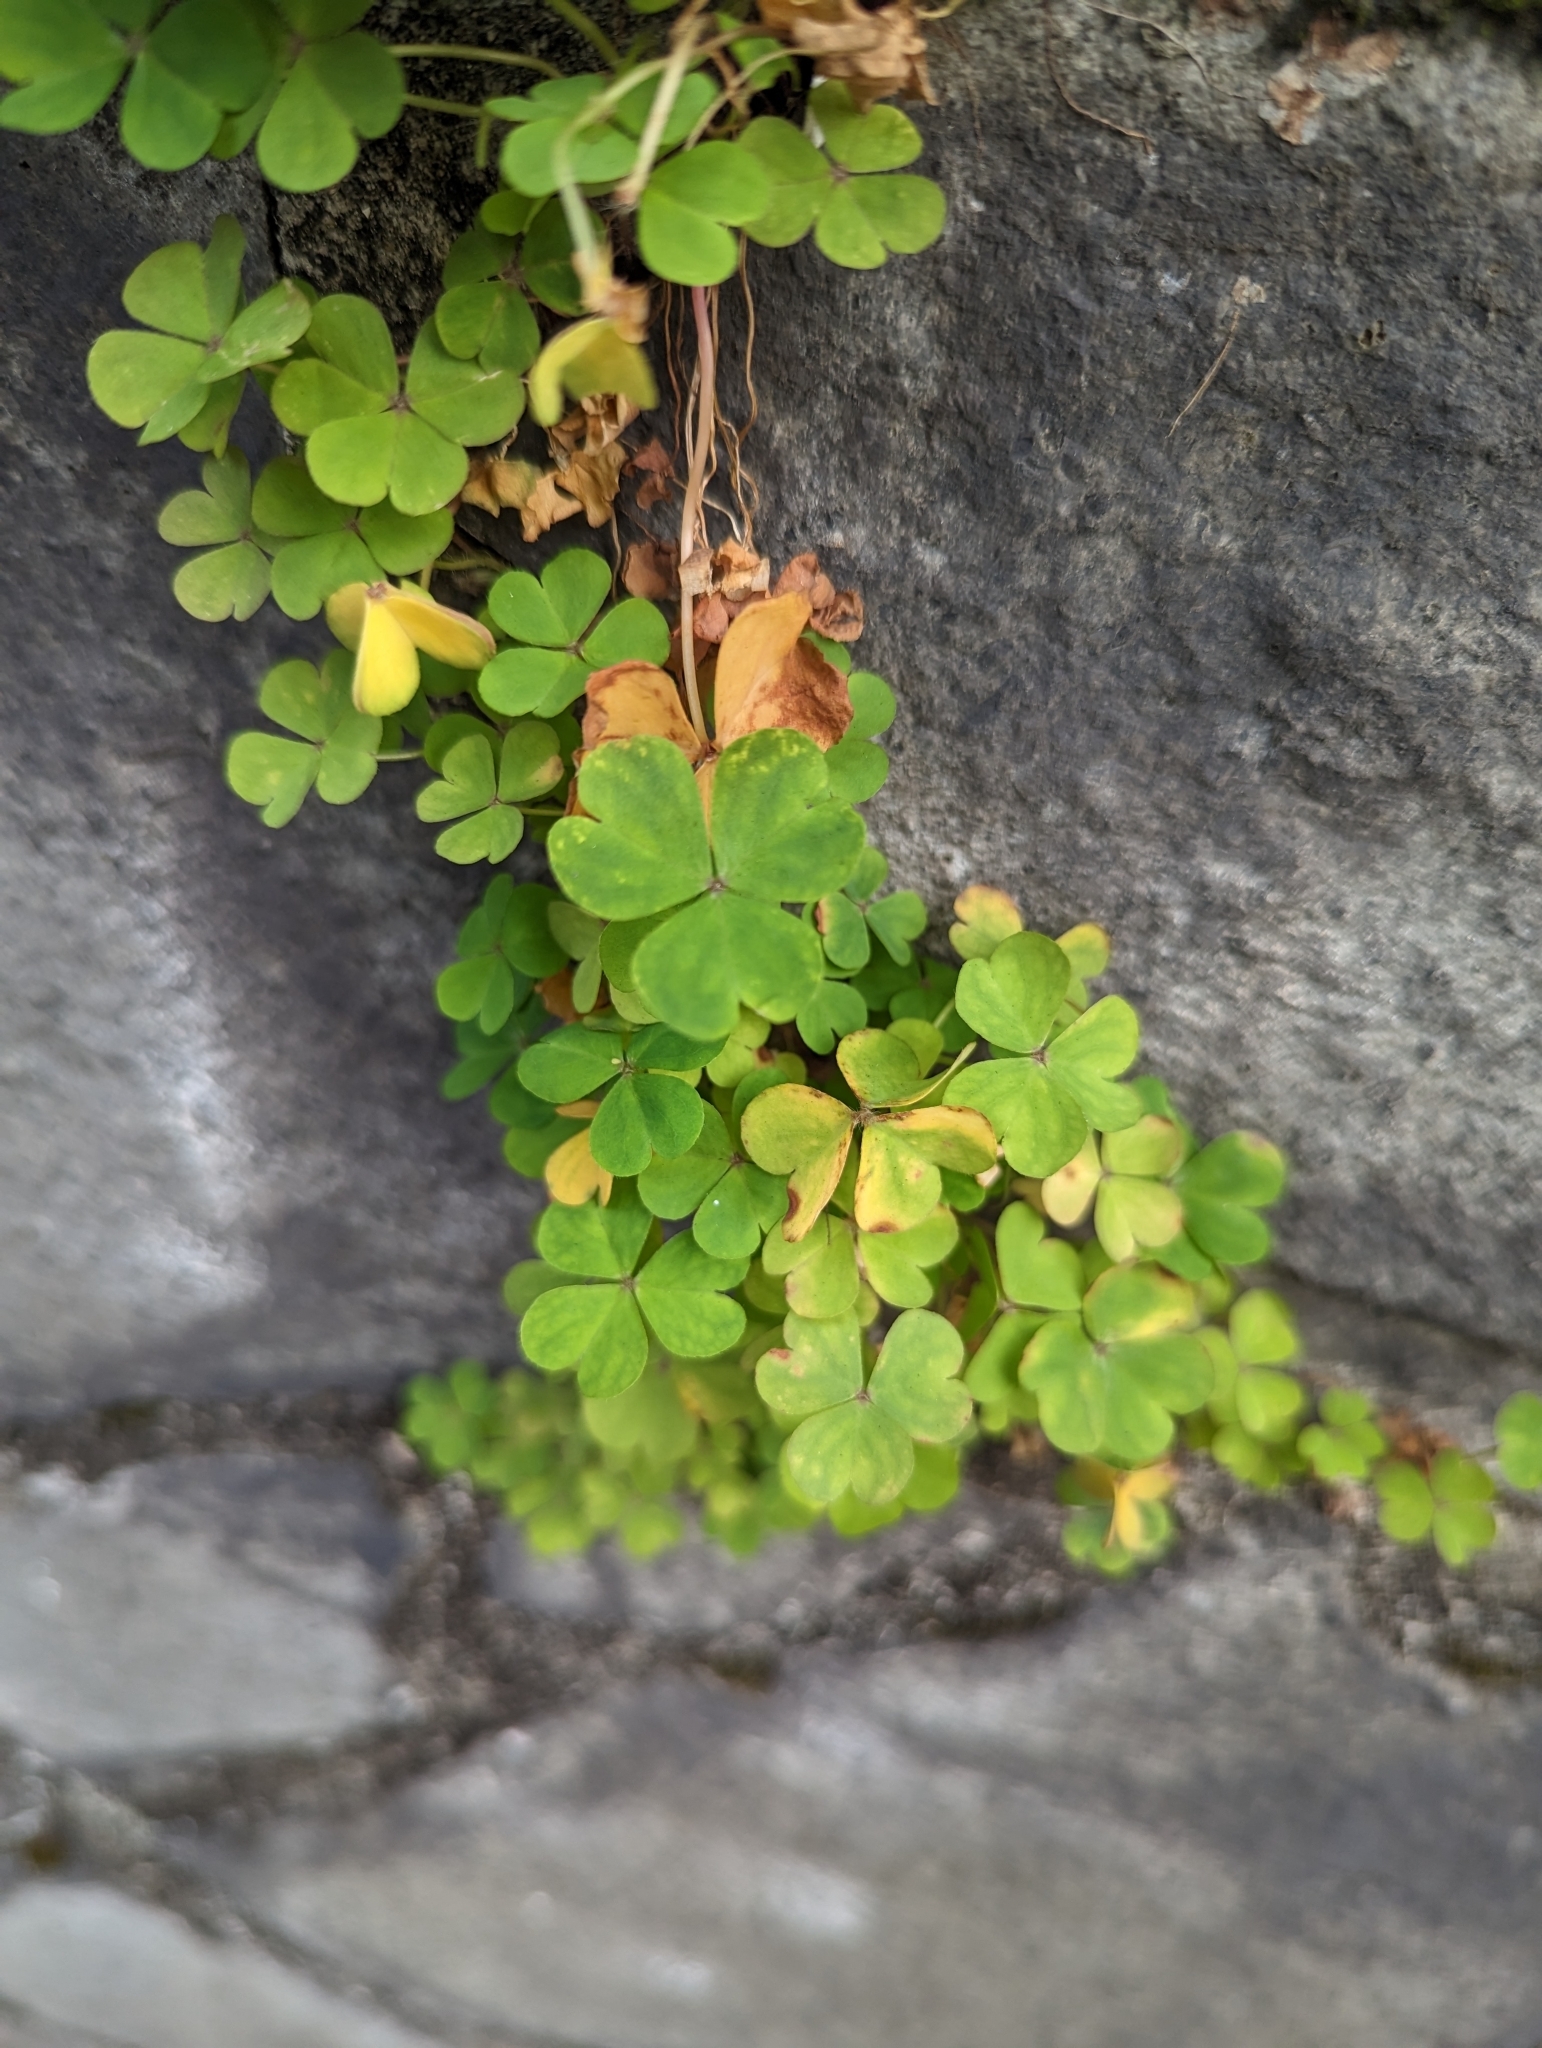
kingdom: Plantae
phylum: Tracheophyta
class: Magnoliopsida
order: Oxalidales
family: Oxalidaceae
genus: Oxalis
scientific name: Oxalis corniculata
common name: Procumbent yellow-sorrel
